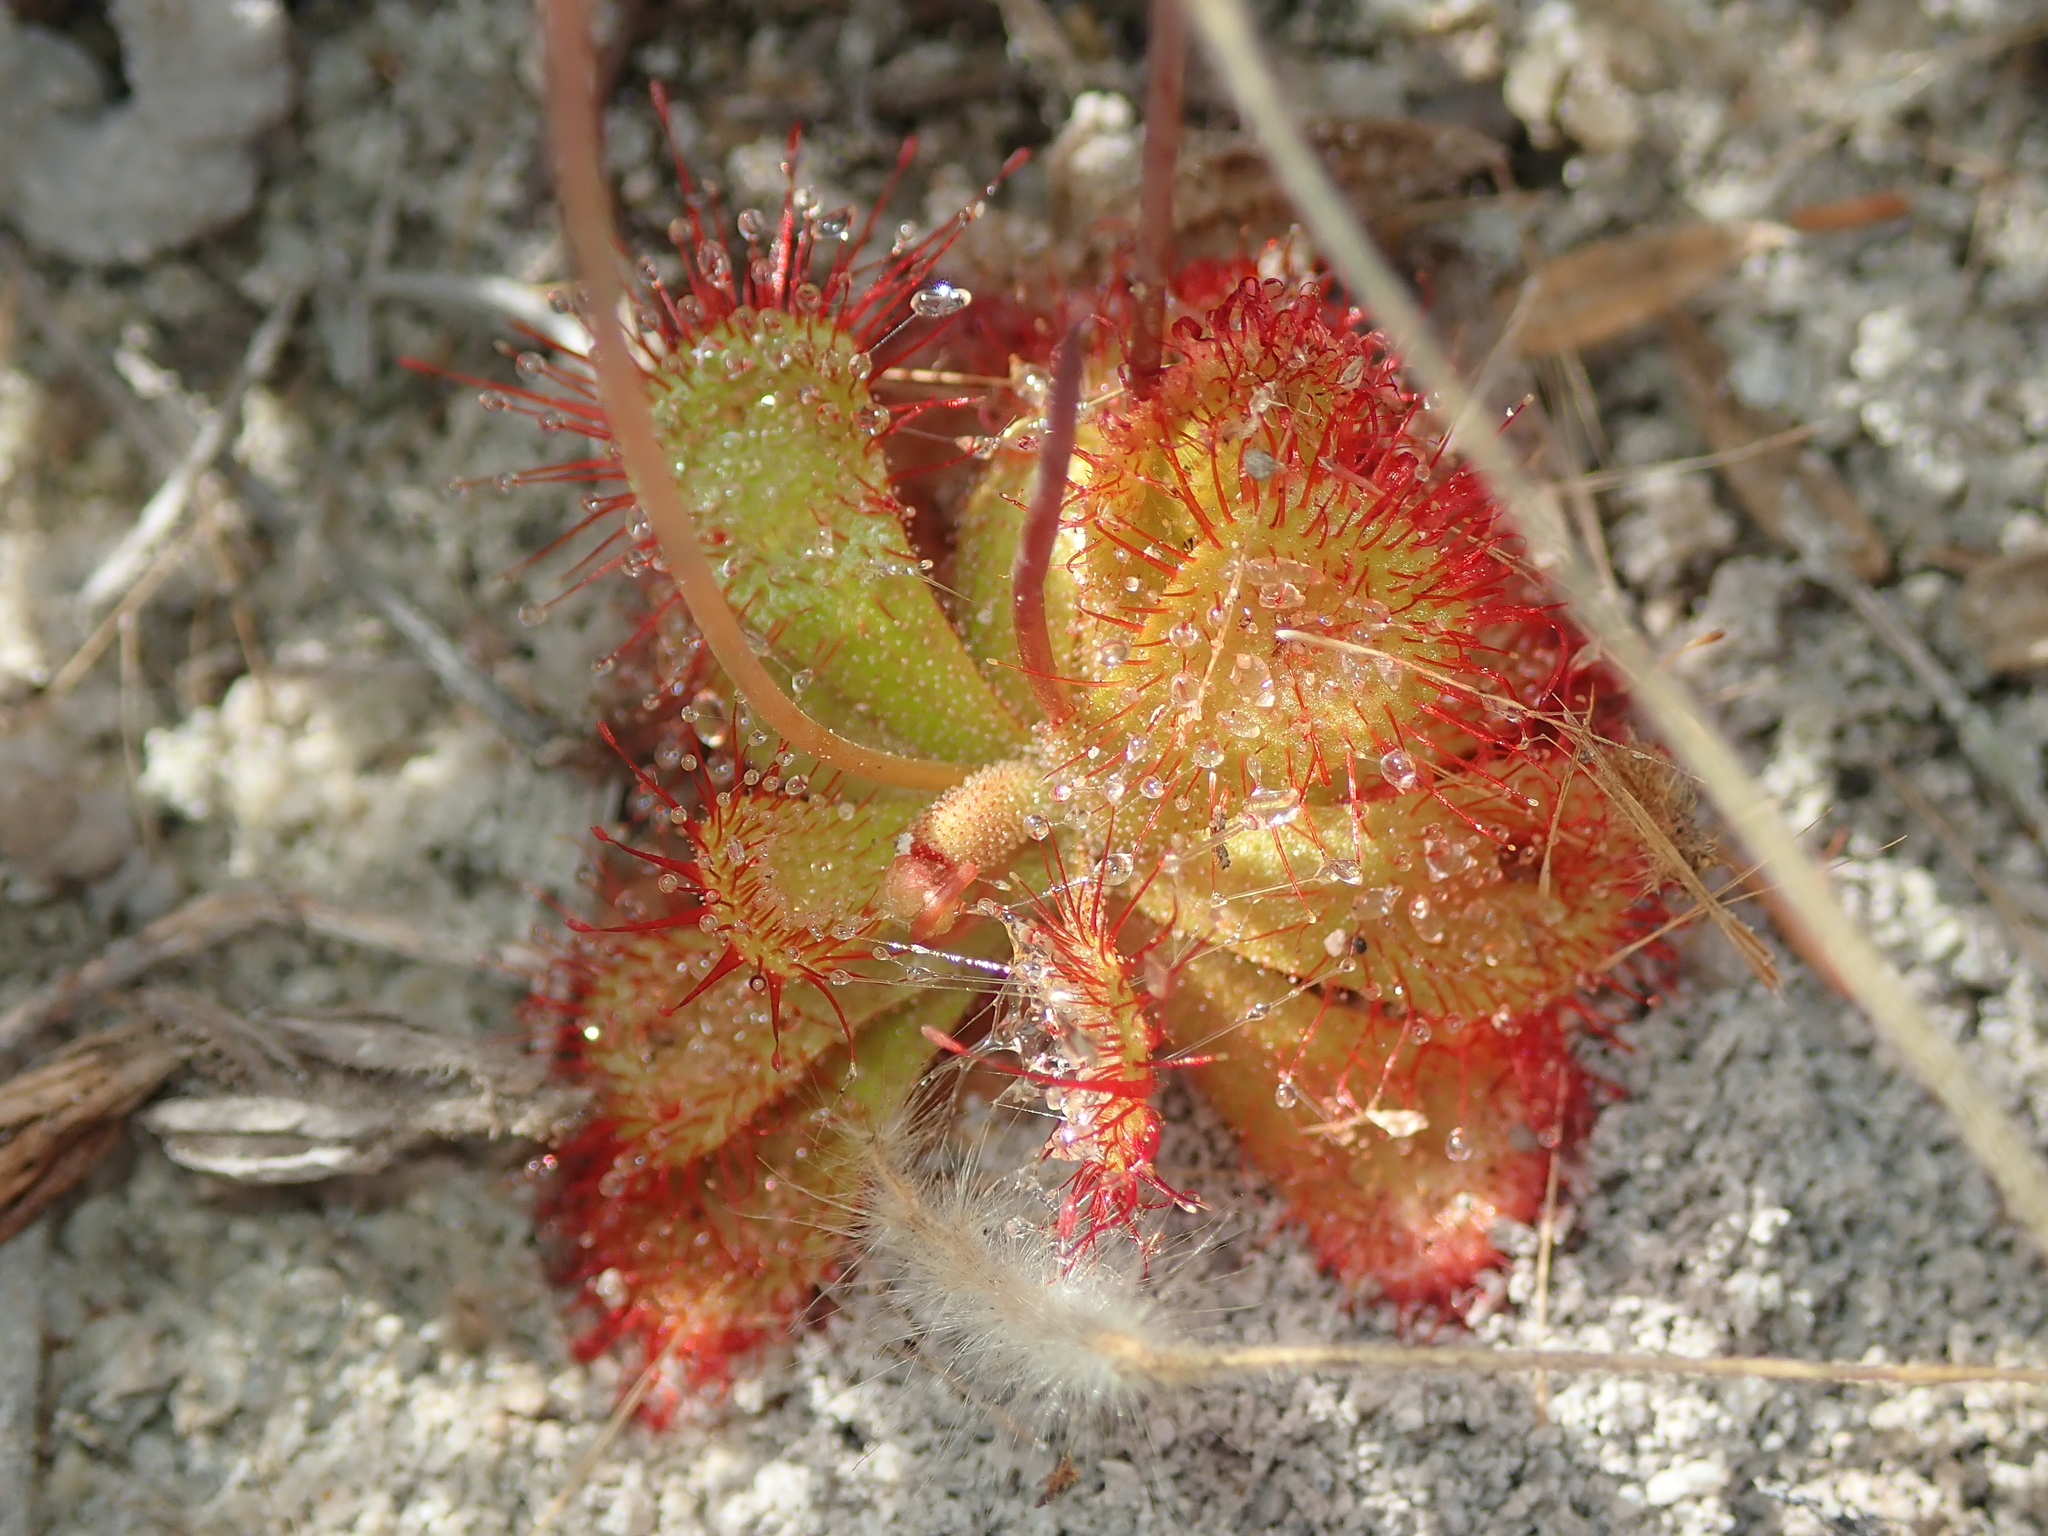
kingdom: Plantae
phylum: Tracheophyta
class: Magnoliopsida
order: Caryophyllales
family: Droseraceae
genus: Drosera
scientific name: Drosera sessilifolia
